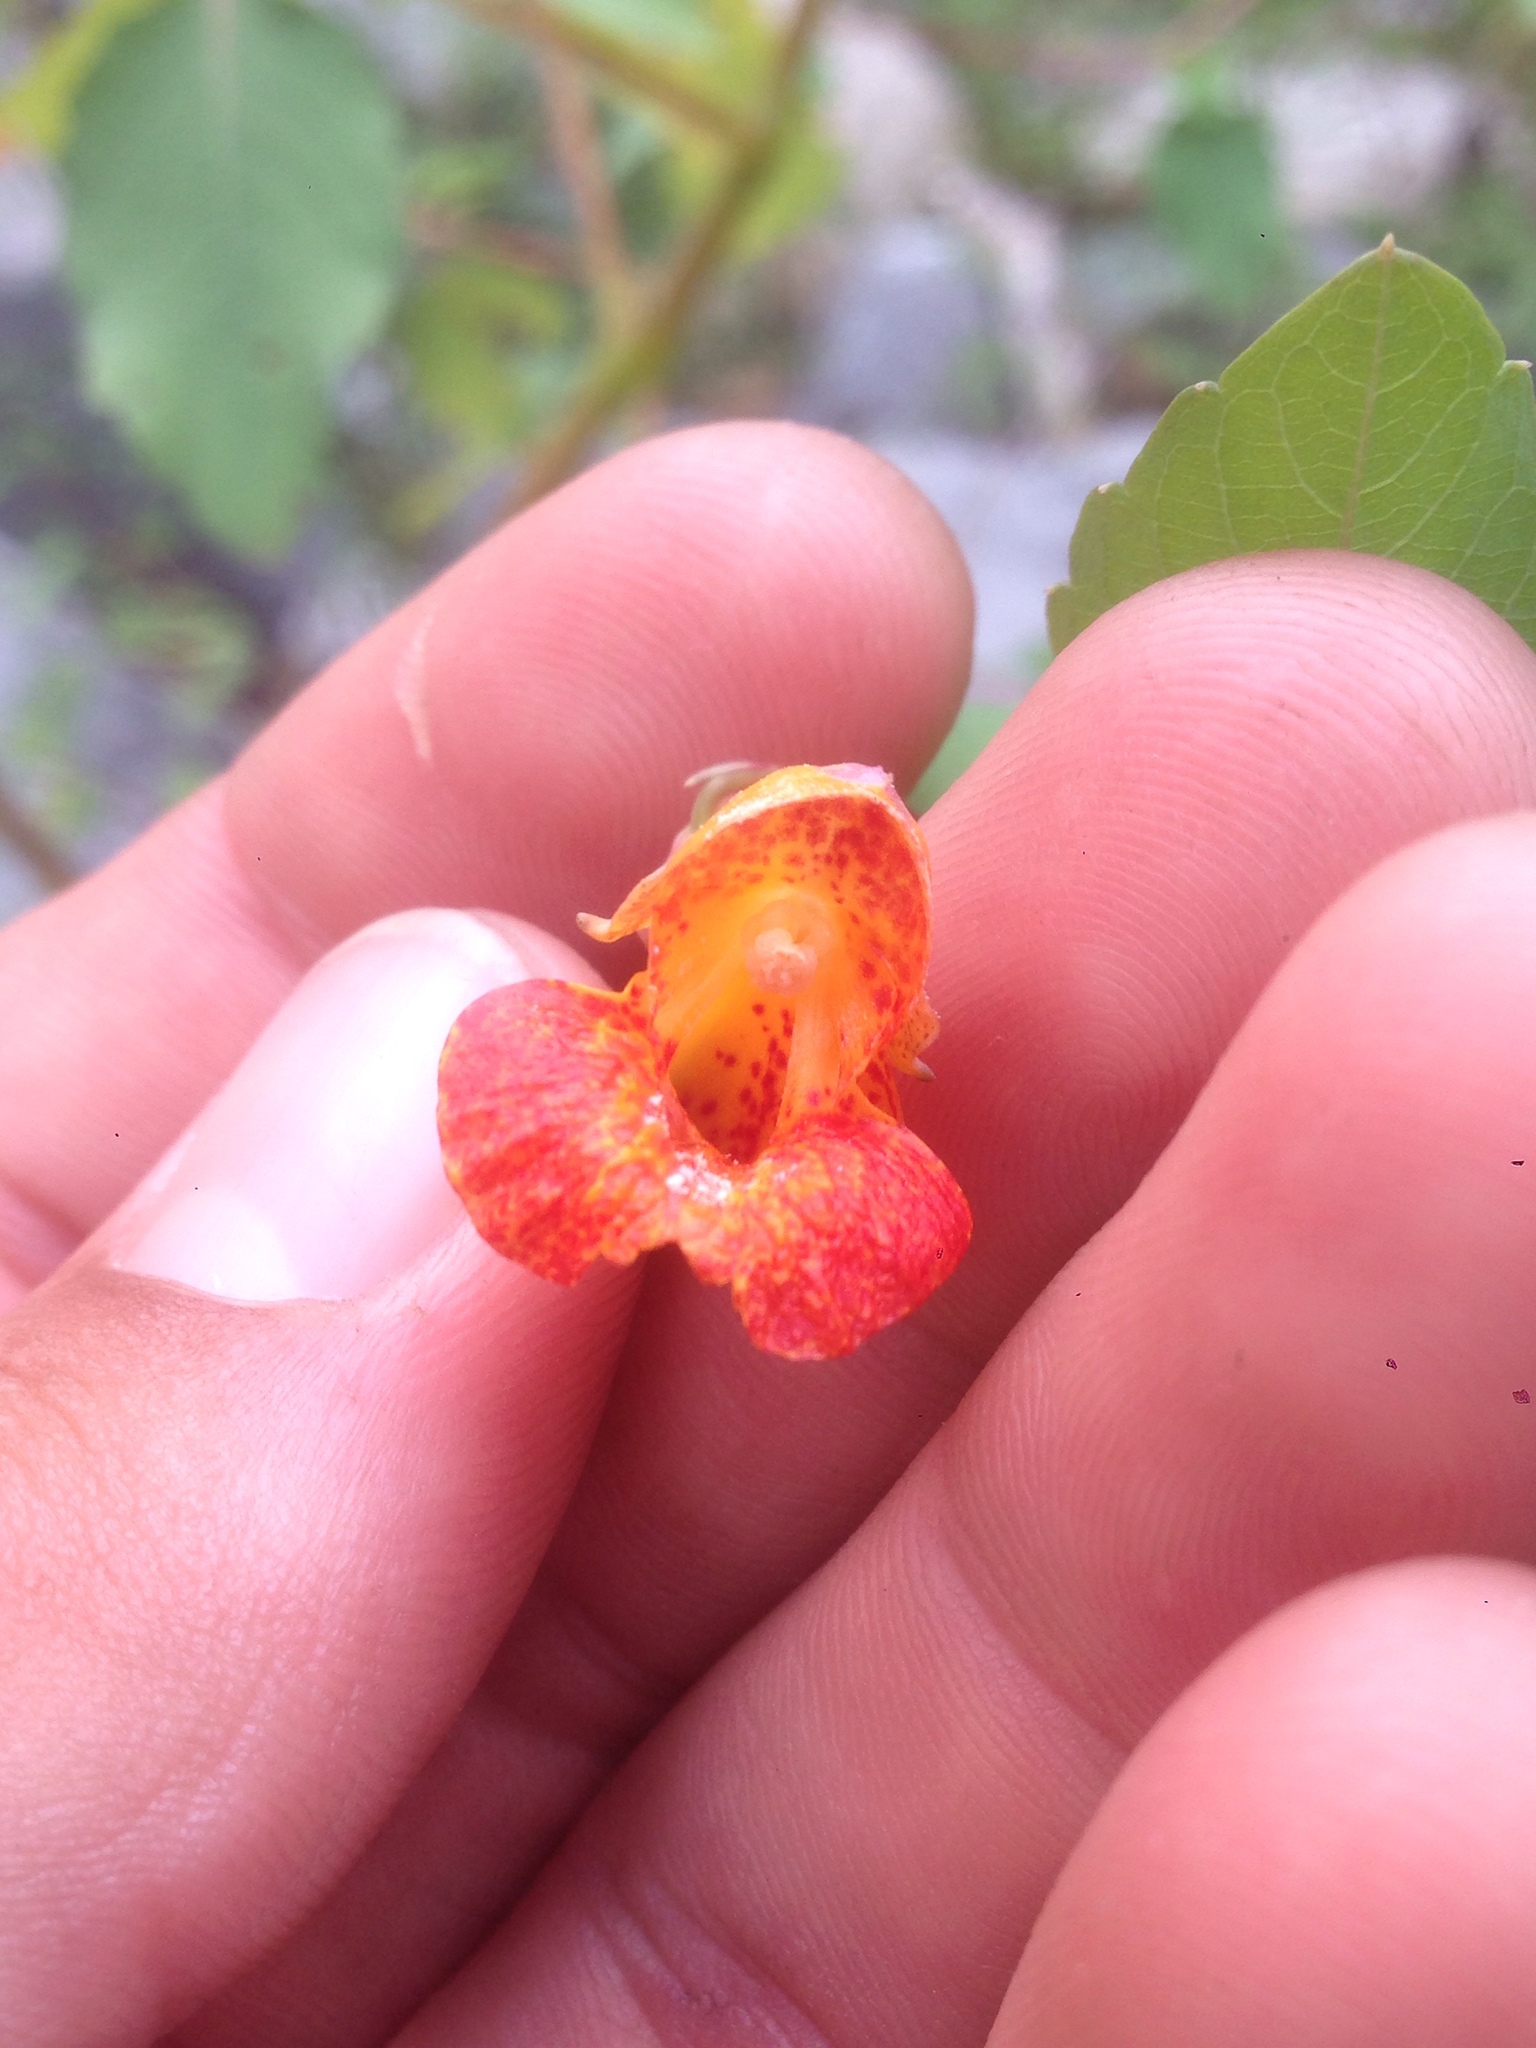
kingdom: Plantae
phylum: Tracheophyta
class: Magnoliopsida
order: Ericales
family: Balsaminaceae
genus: Impatiens
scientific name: Impatiens capensis
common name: Orange balsam
